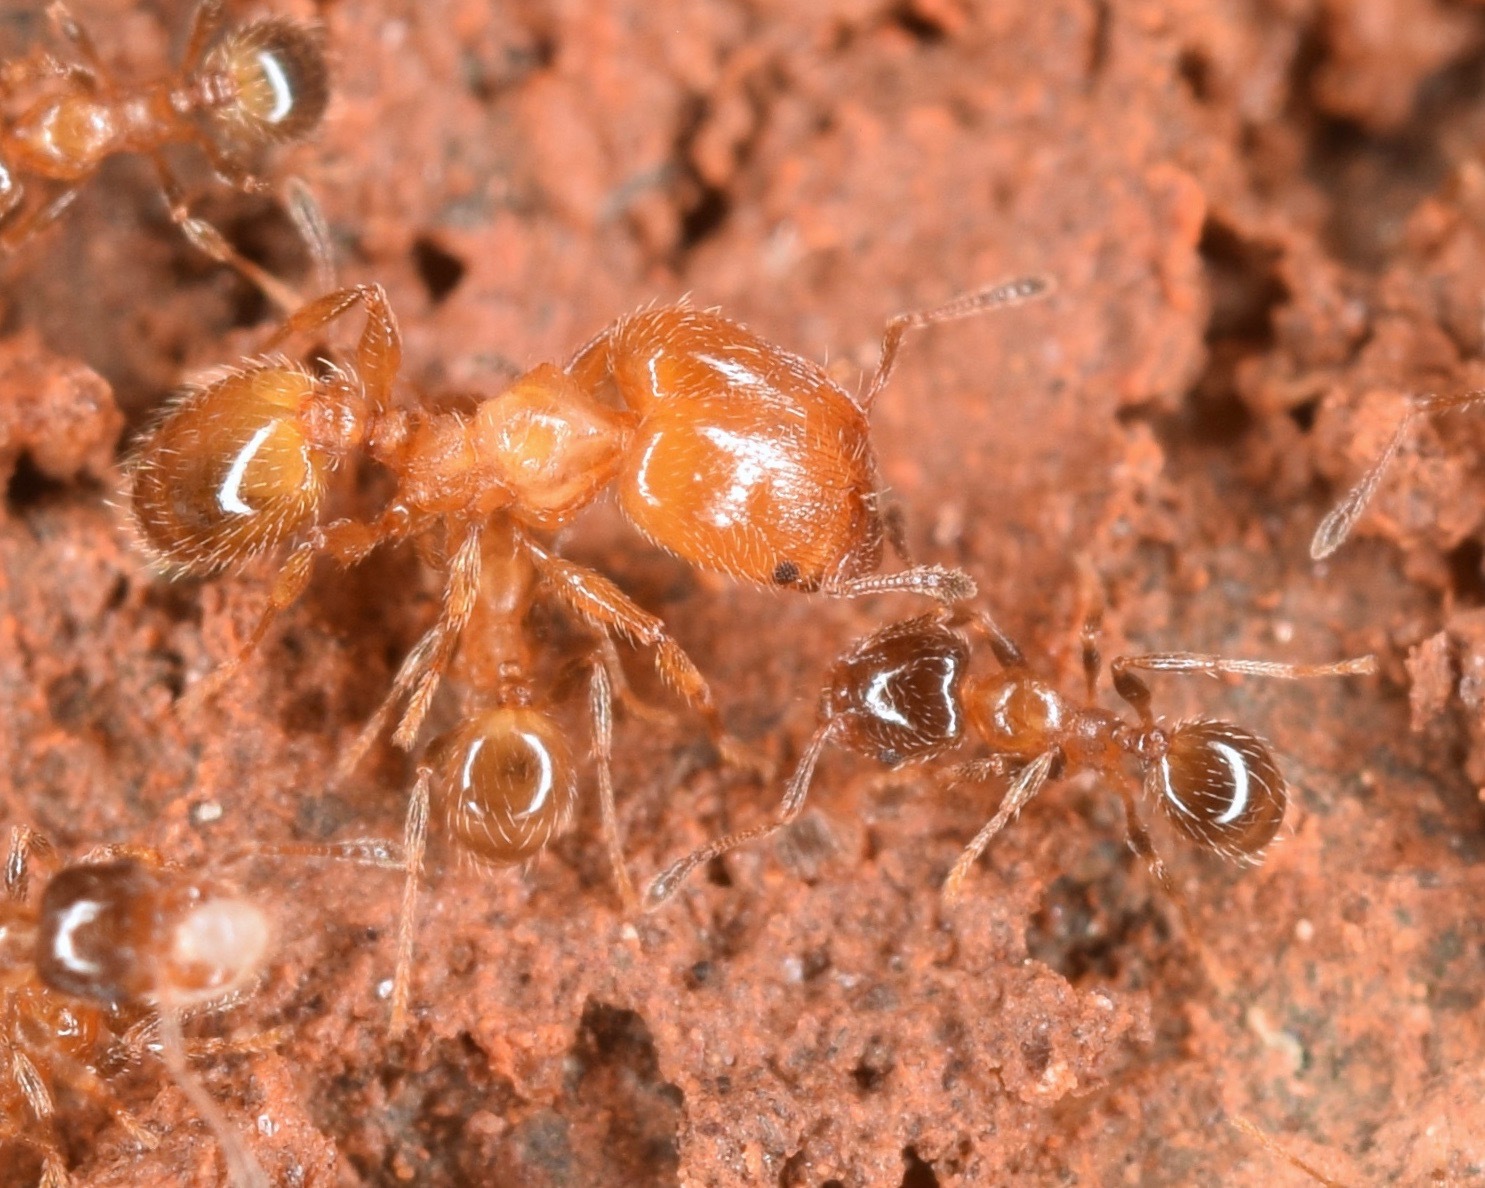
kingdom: Animalia
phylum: Arthropoda
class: Insecta
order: Hymenoptera
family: Formicidae
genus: Pheidole
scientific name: Pheidole bicarinata
